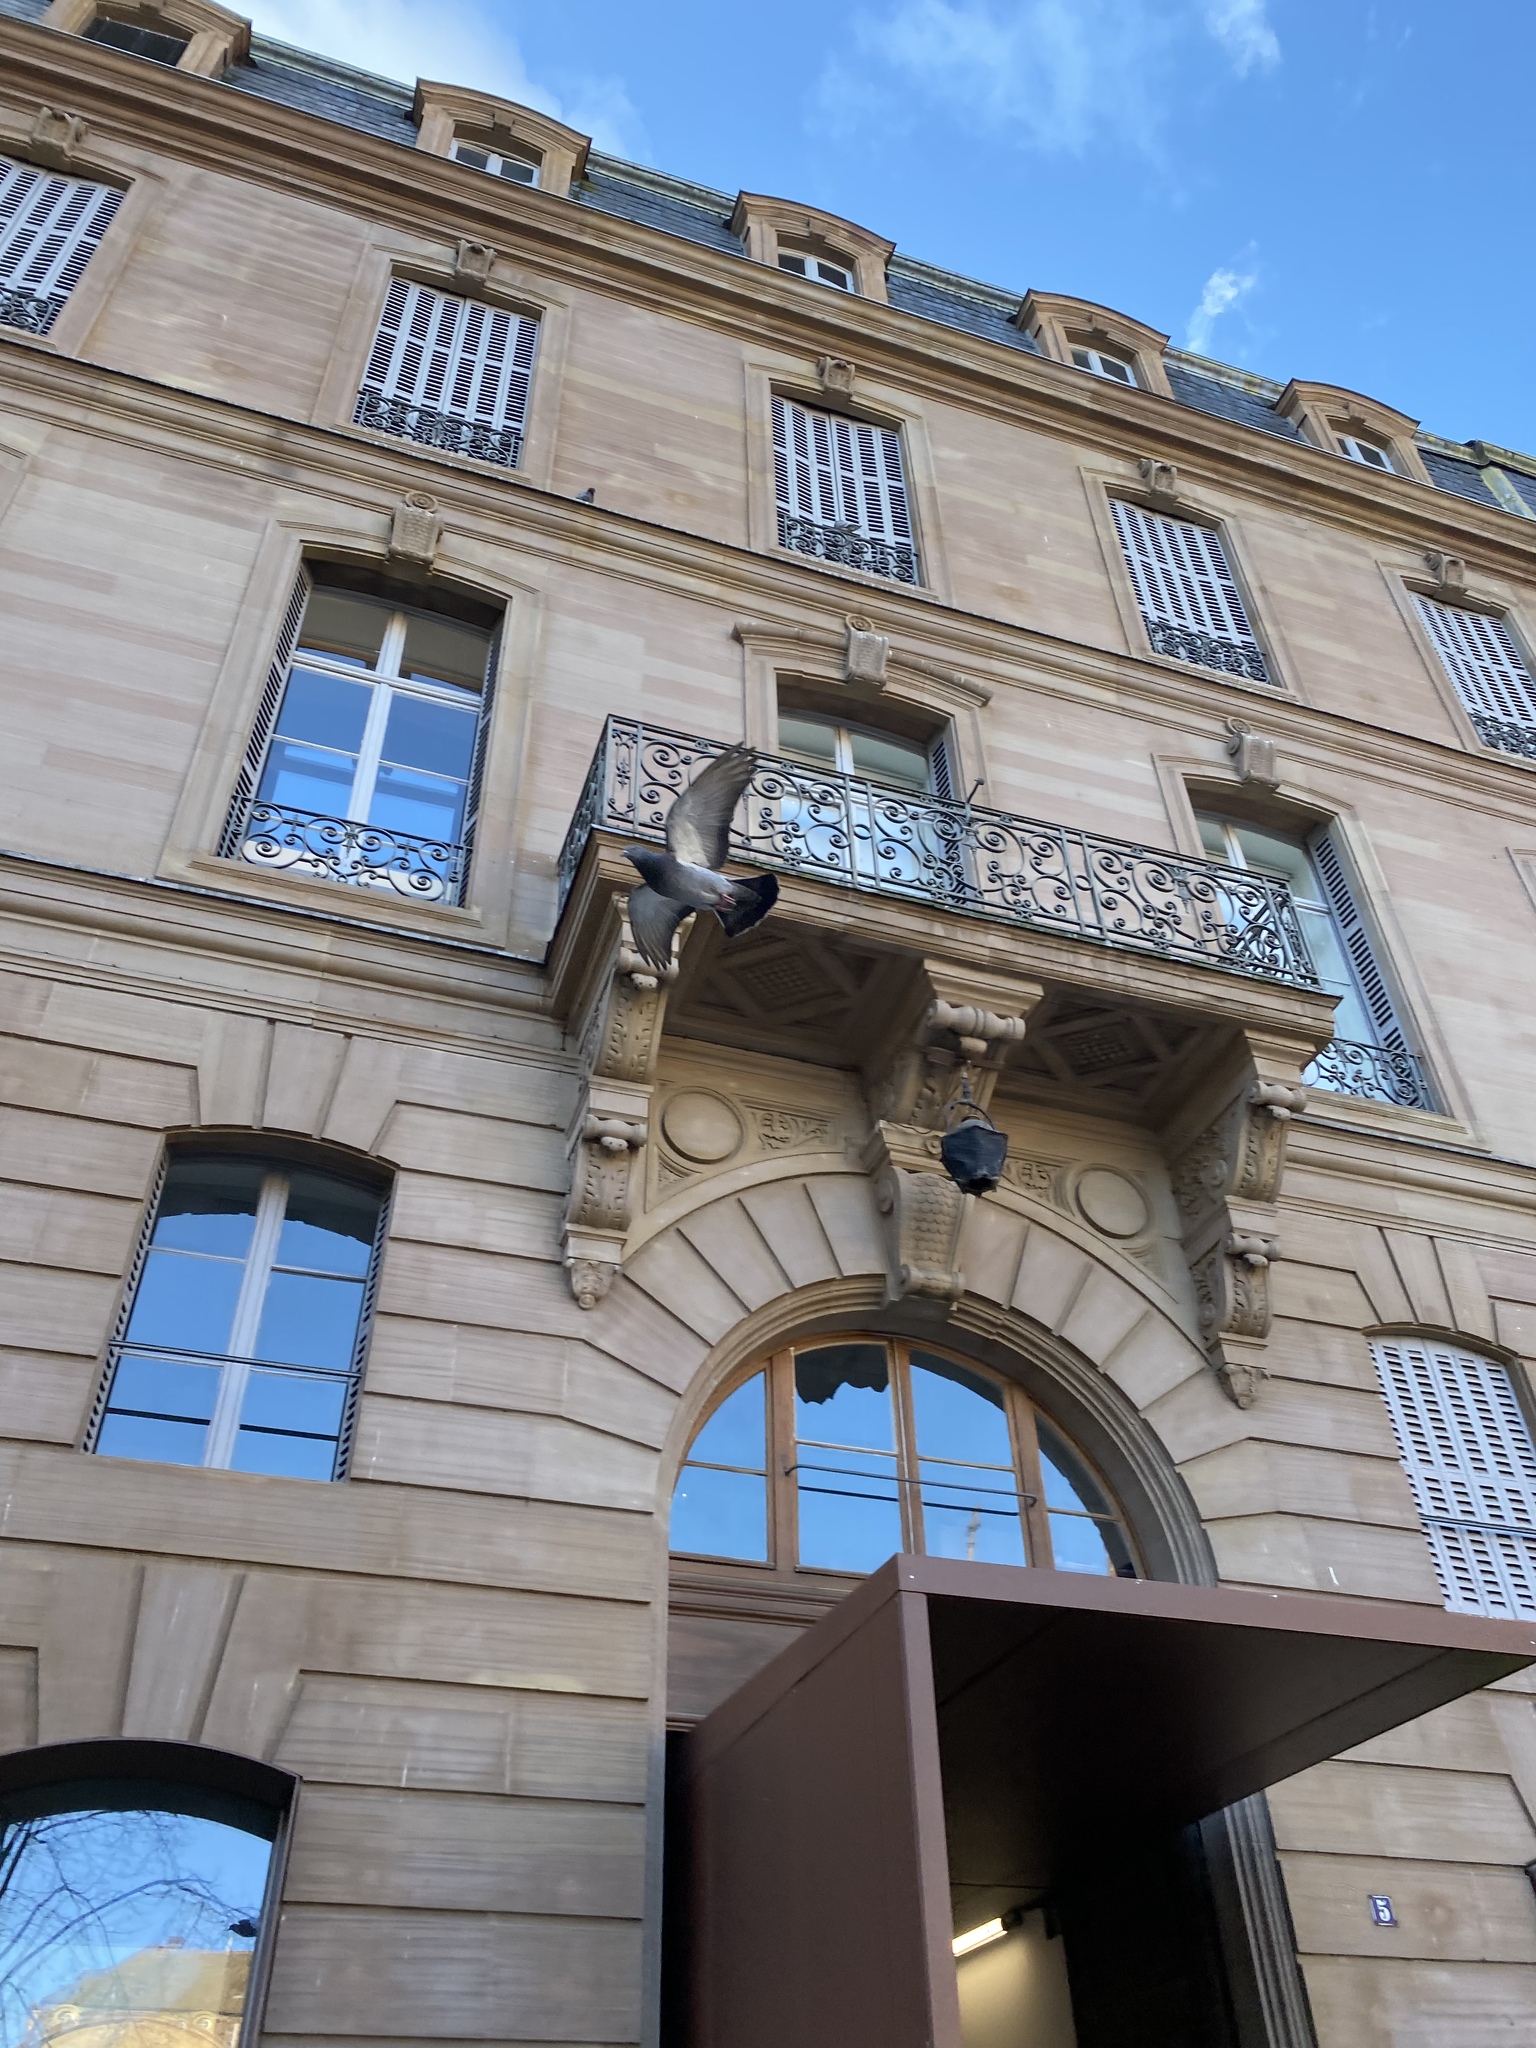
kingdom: Animalia
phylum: Chordata
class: Aves
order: Columbiformes
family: Columbidae
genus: Columba
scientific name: Columba livia
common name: Rock pigeon
